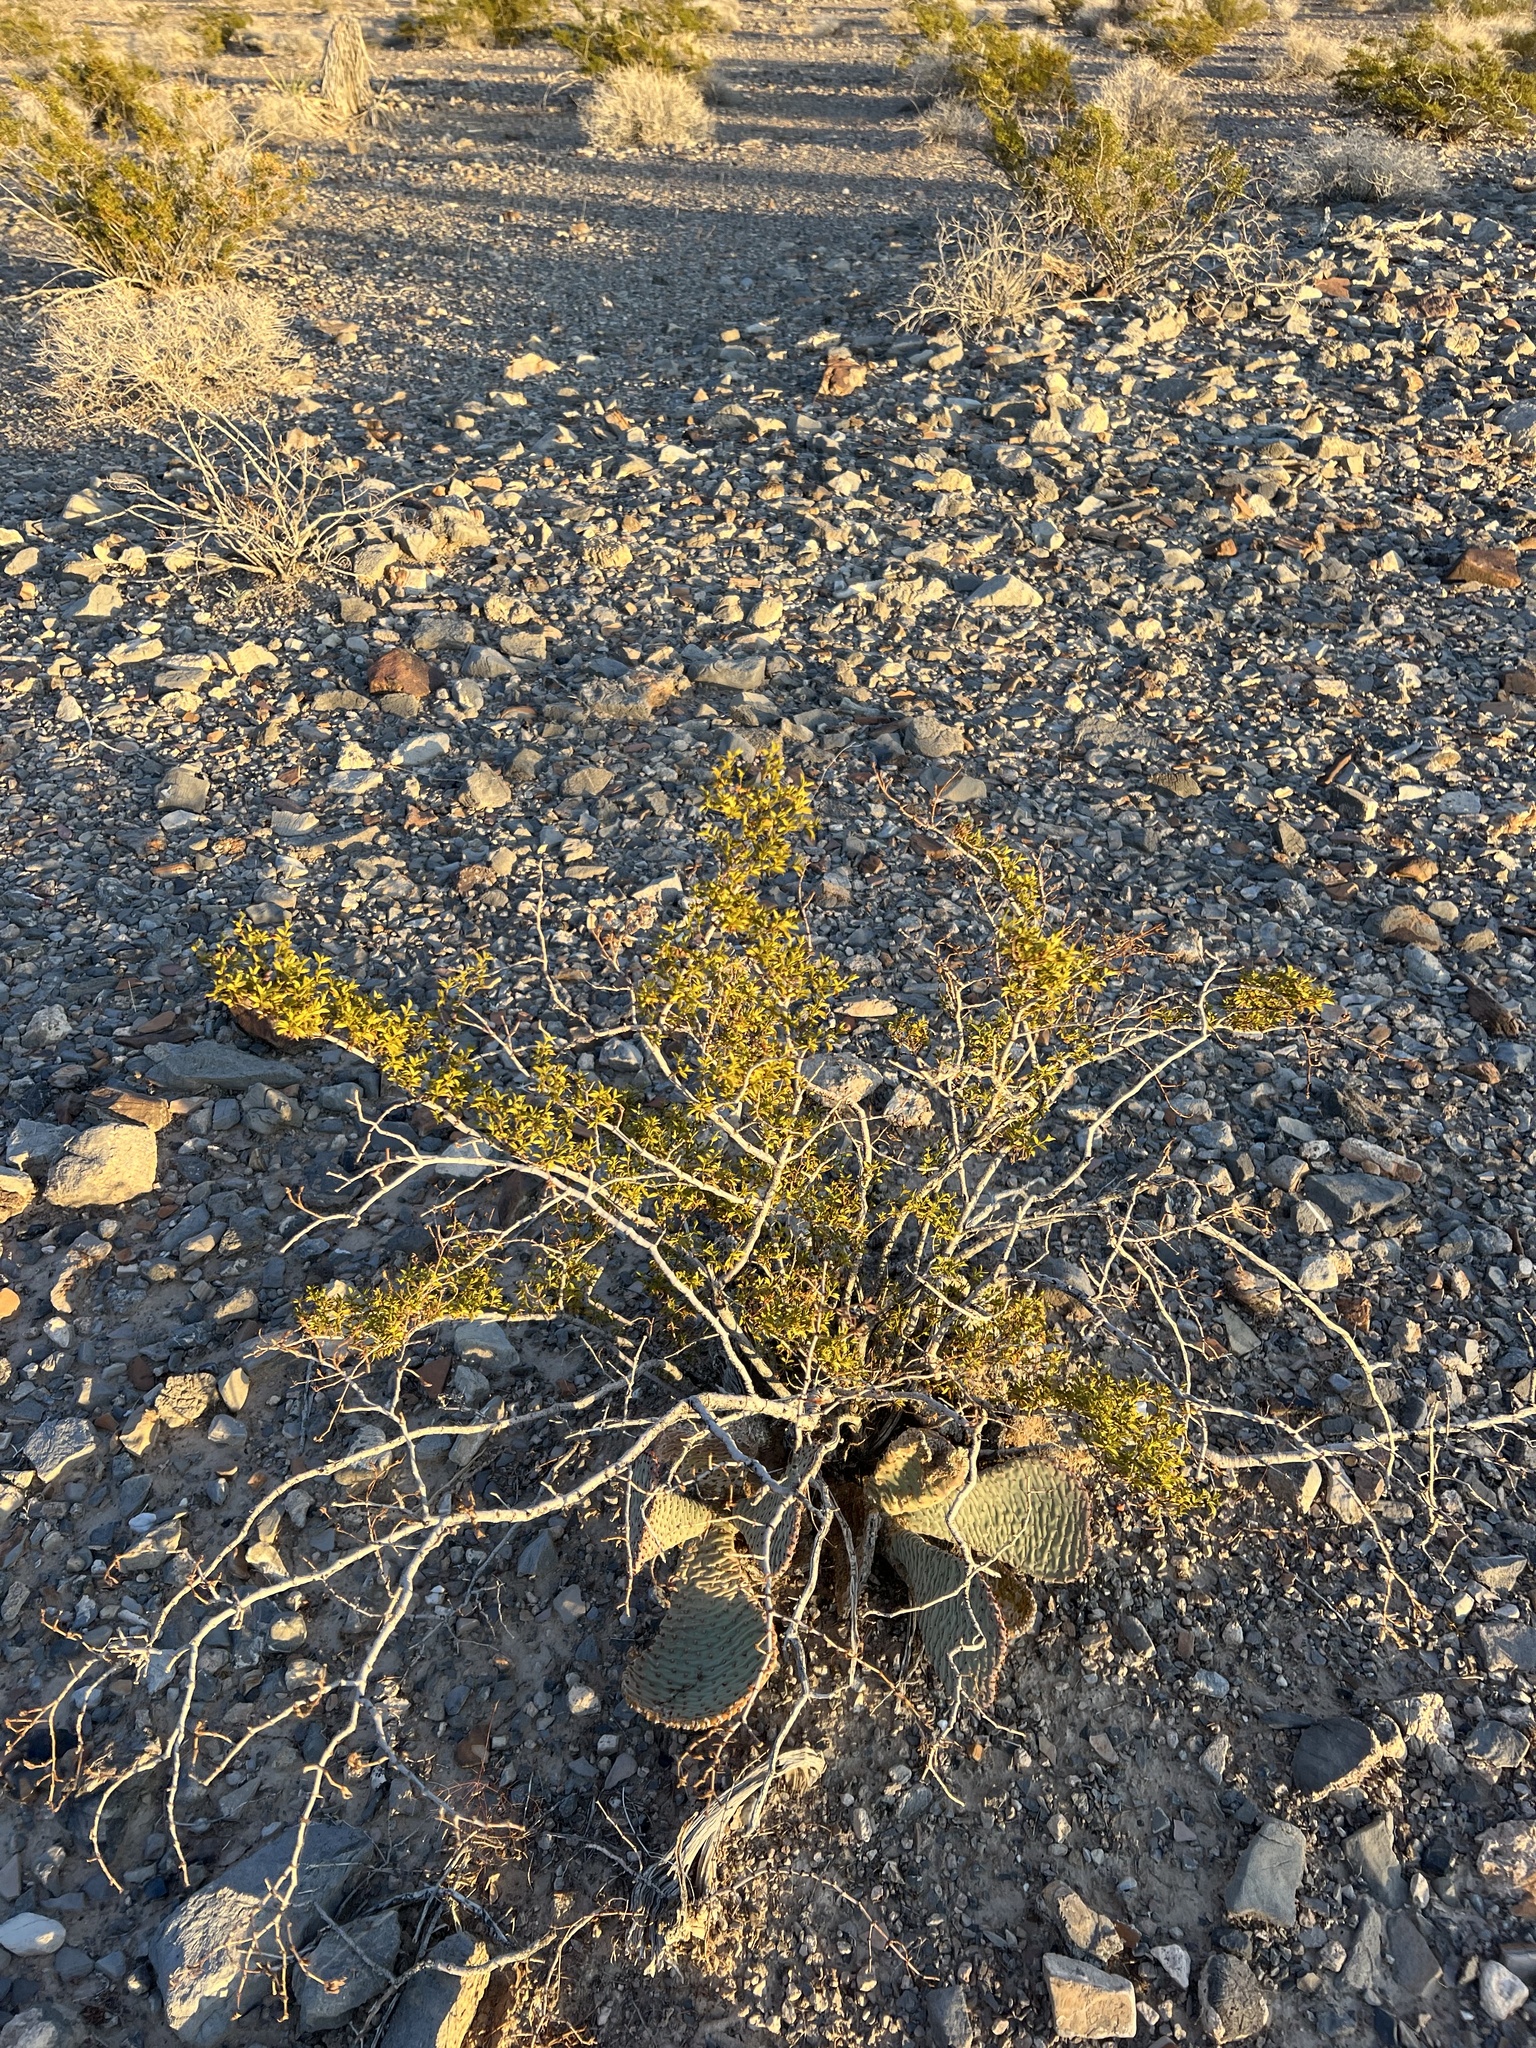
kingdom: Plantae
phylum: Tracheophyta
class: Magnoliopsida
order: Zygophyllales
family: Zygophyllaceae
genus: Larrea
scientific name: Larrea tridentata
